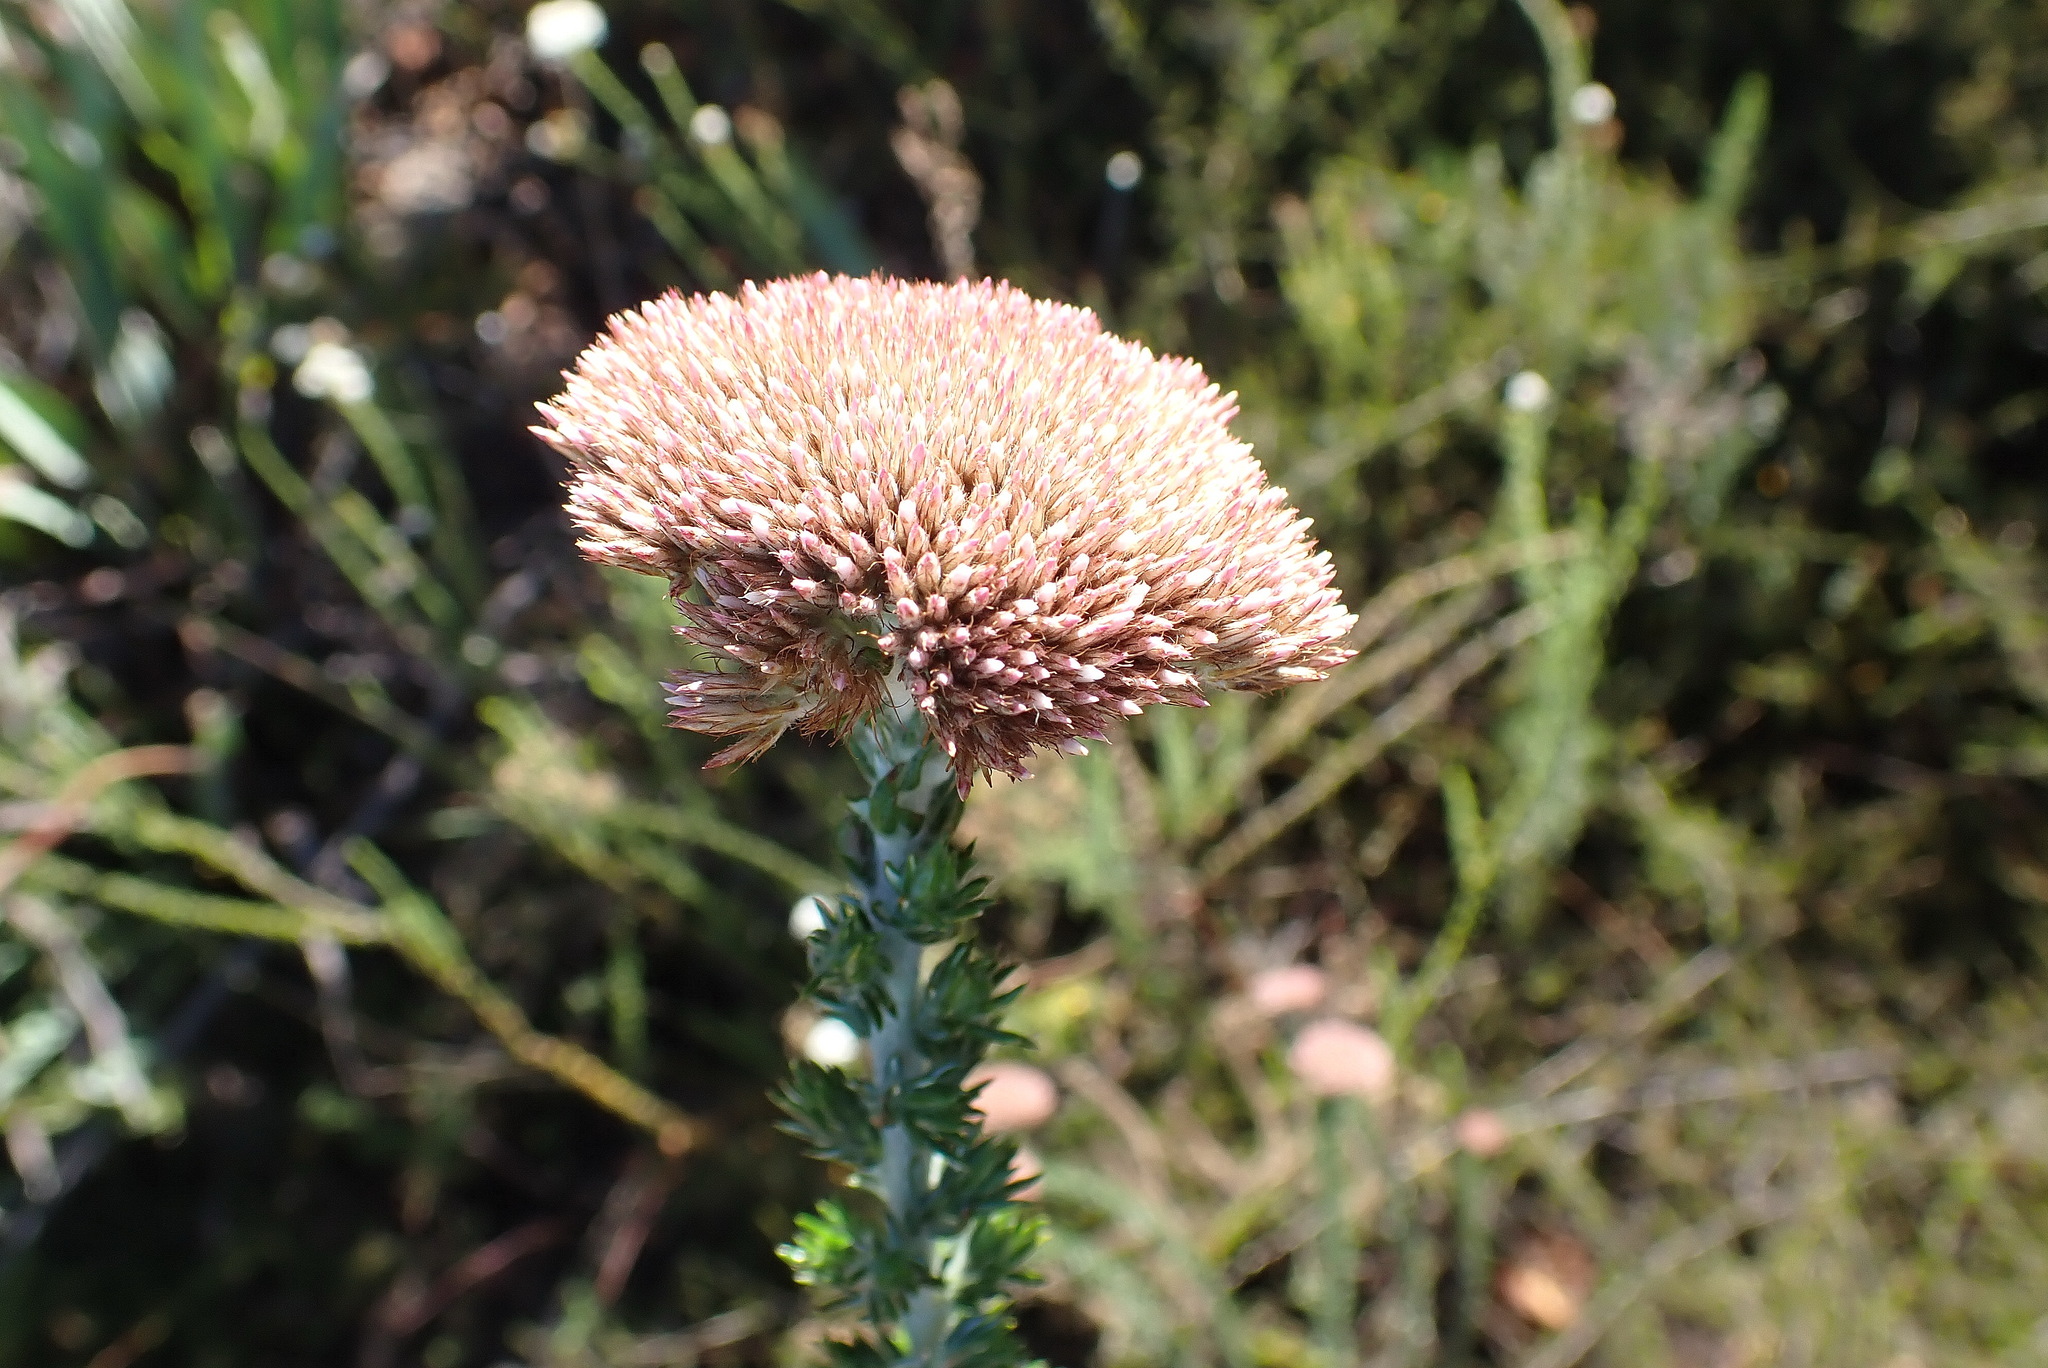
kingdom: Plantae
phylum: Tracheophyta
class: Magnoliopsida
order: Asterales
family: Asteraceae
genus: Metalasia
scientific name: Metalasia pungens
